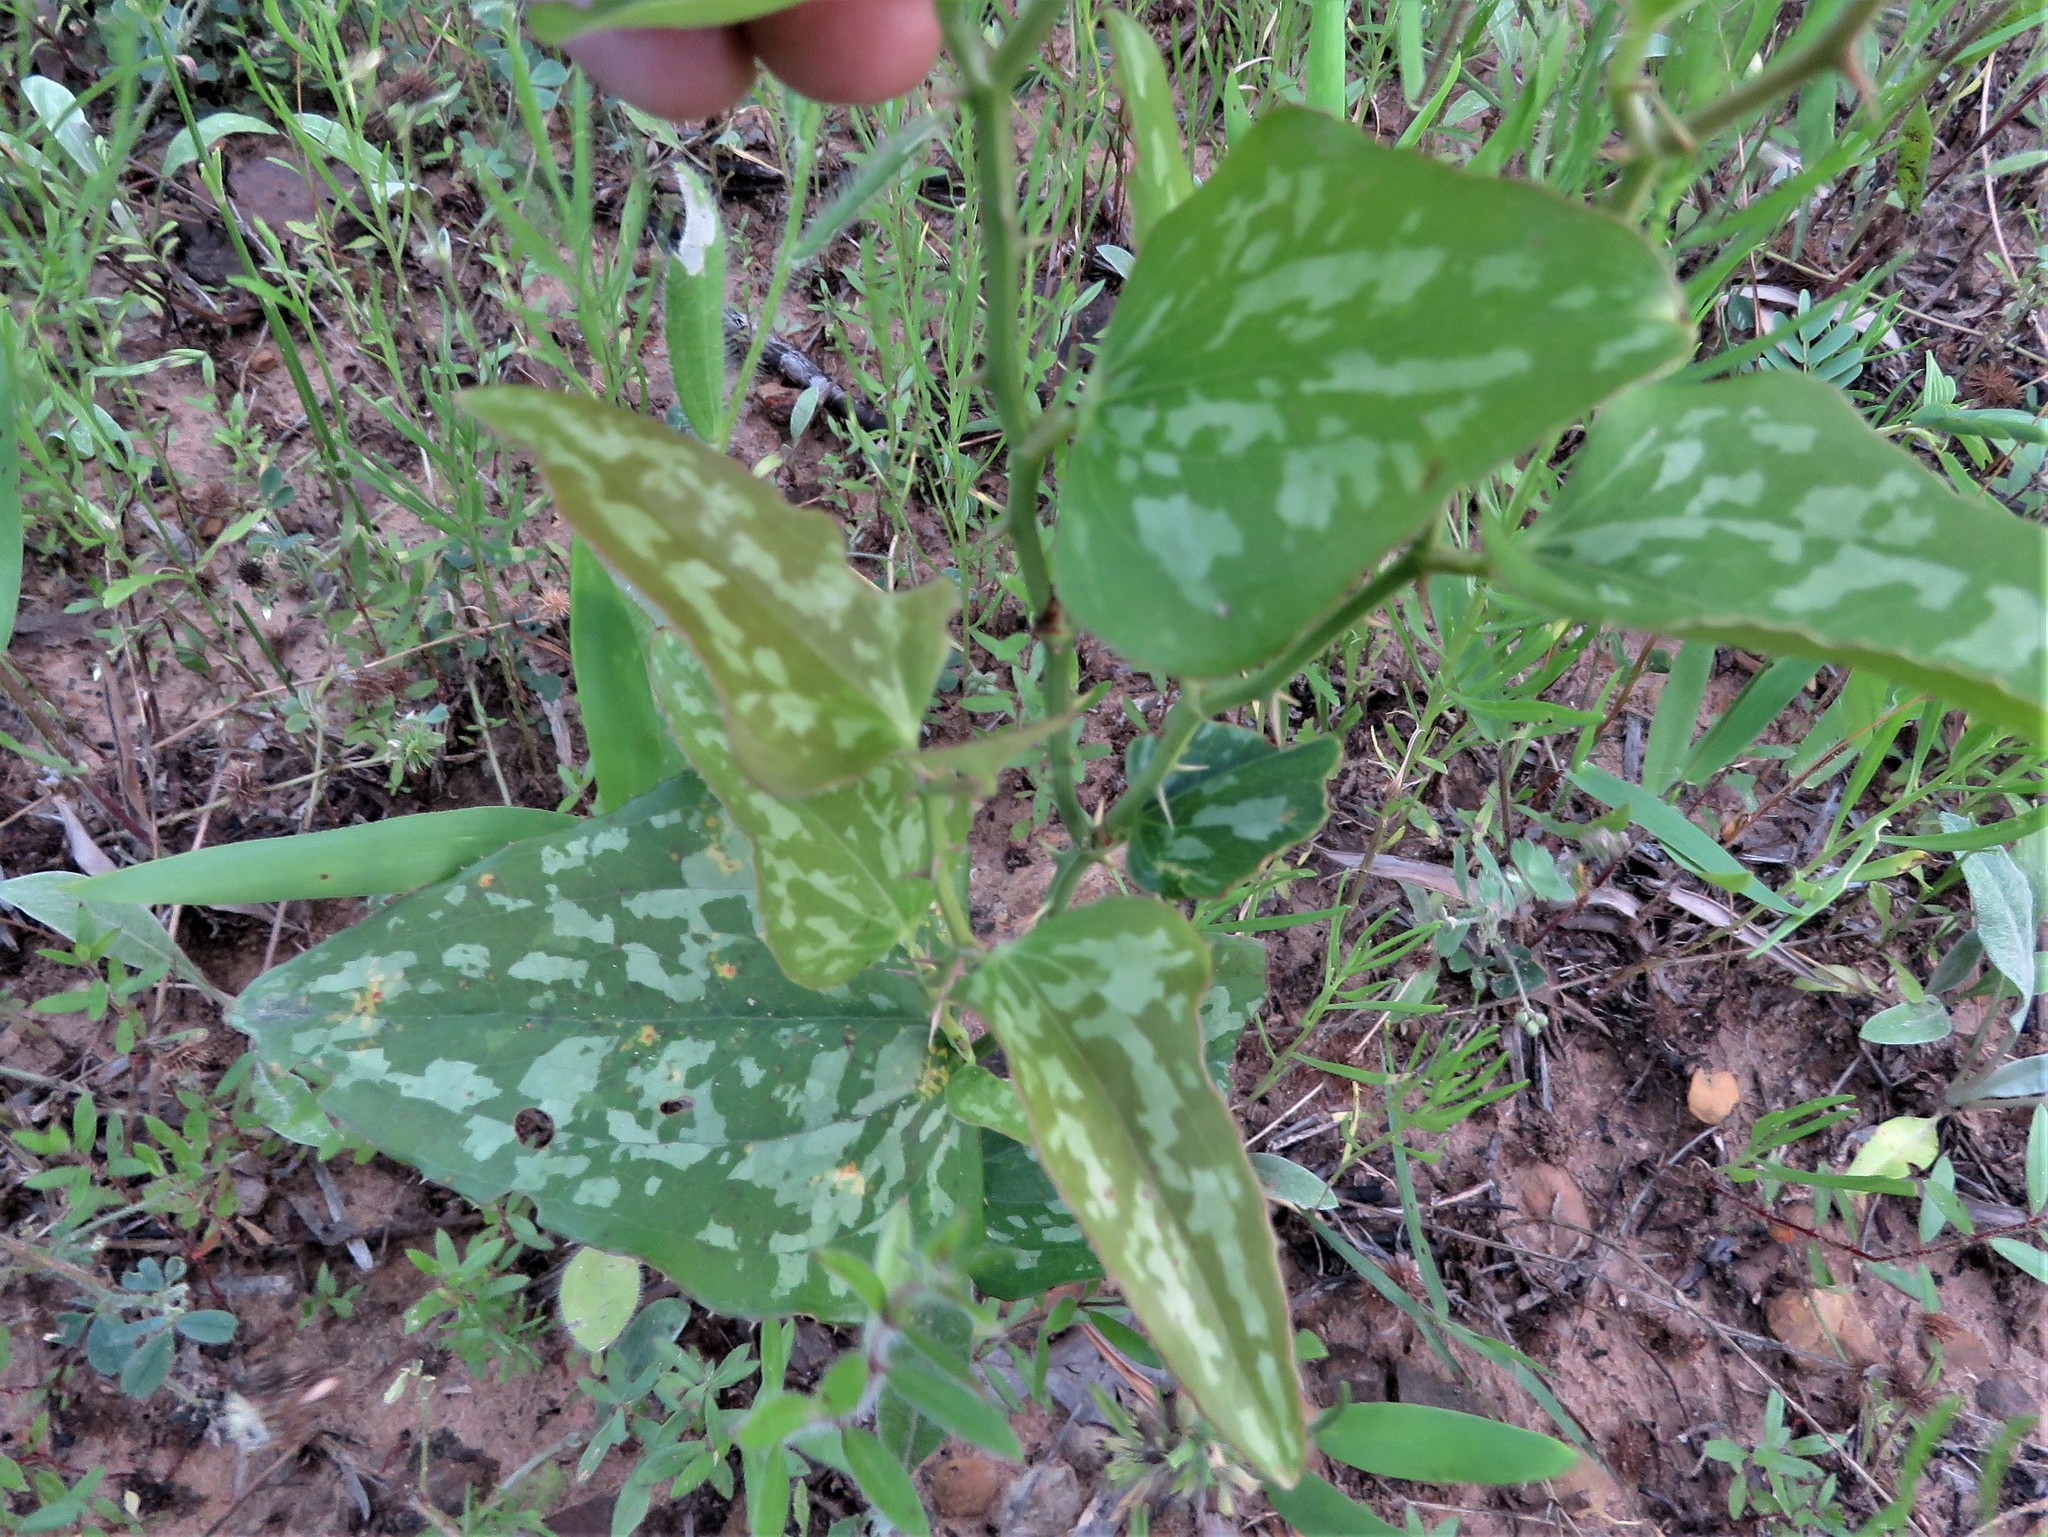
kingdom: Plantae
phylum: Tracheophyta
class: Liliopsida
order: Liliales
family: Smilacaceae
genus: Smilax
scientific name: Smilax bona-nox
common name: Catbrier
